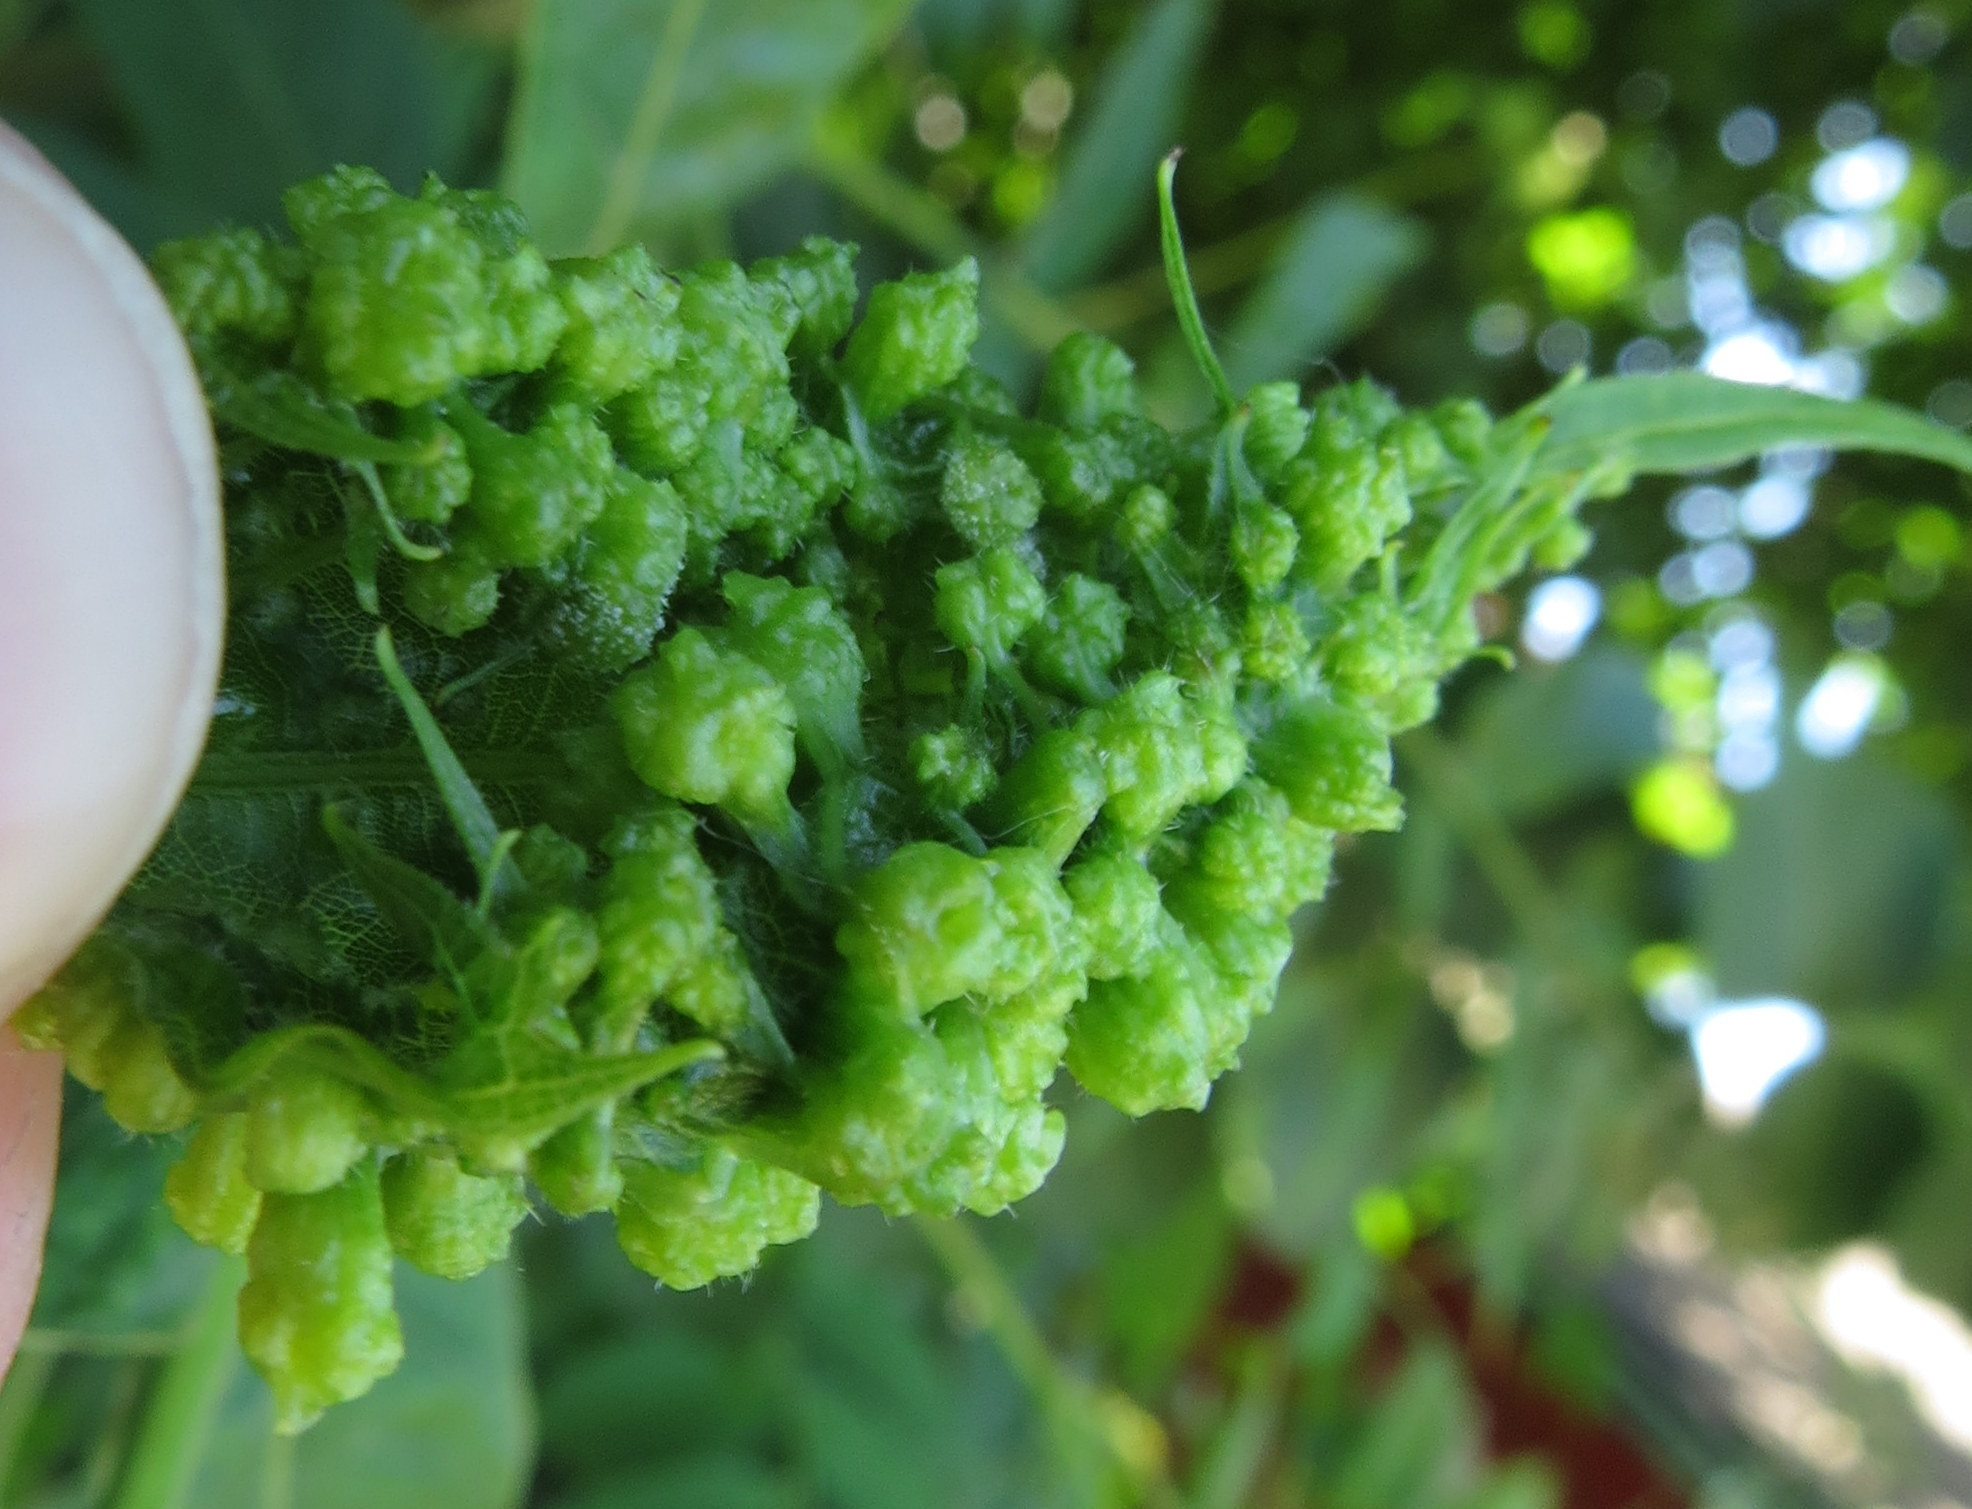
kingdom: Animalia
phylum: Arthropoda
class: Insecta
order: Hemiptera
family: Phylloxeridae
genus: Daktulosphaira
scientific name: Daktulosphaira vitifoliae
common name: Grape phylloxera
